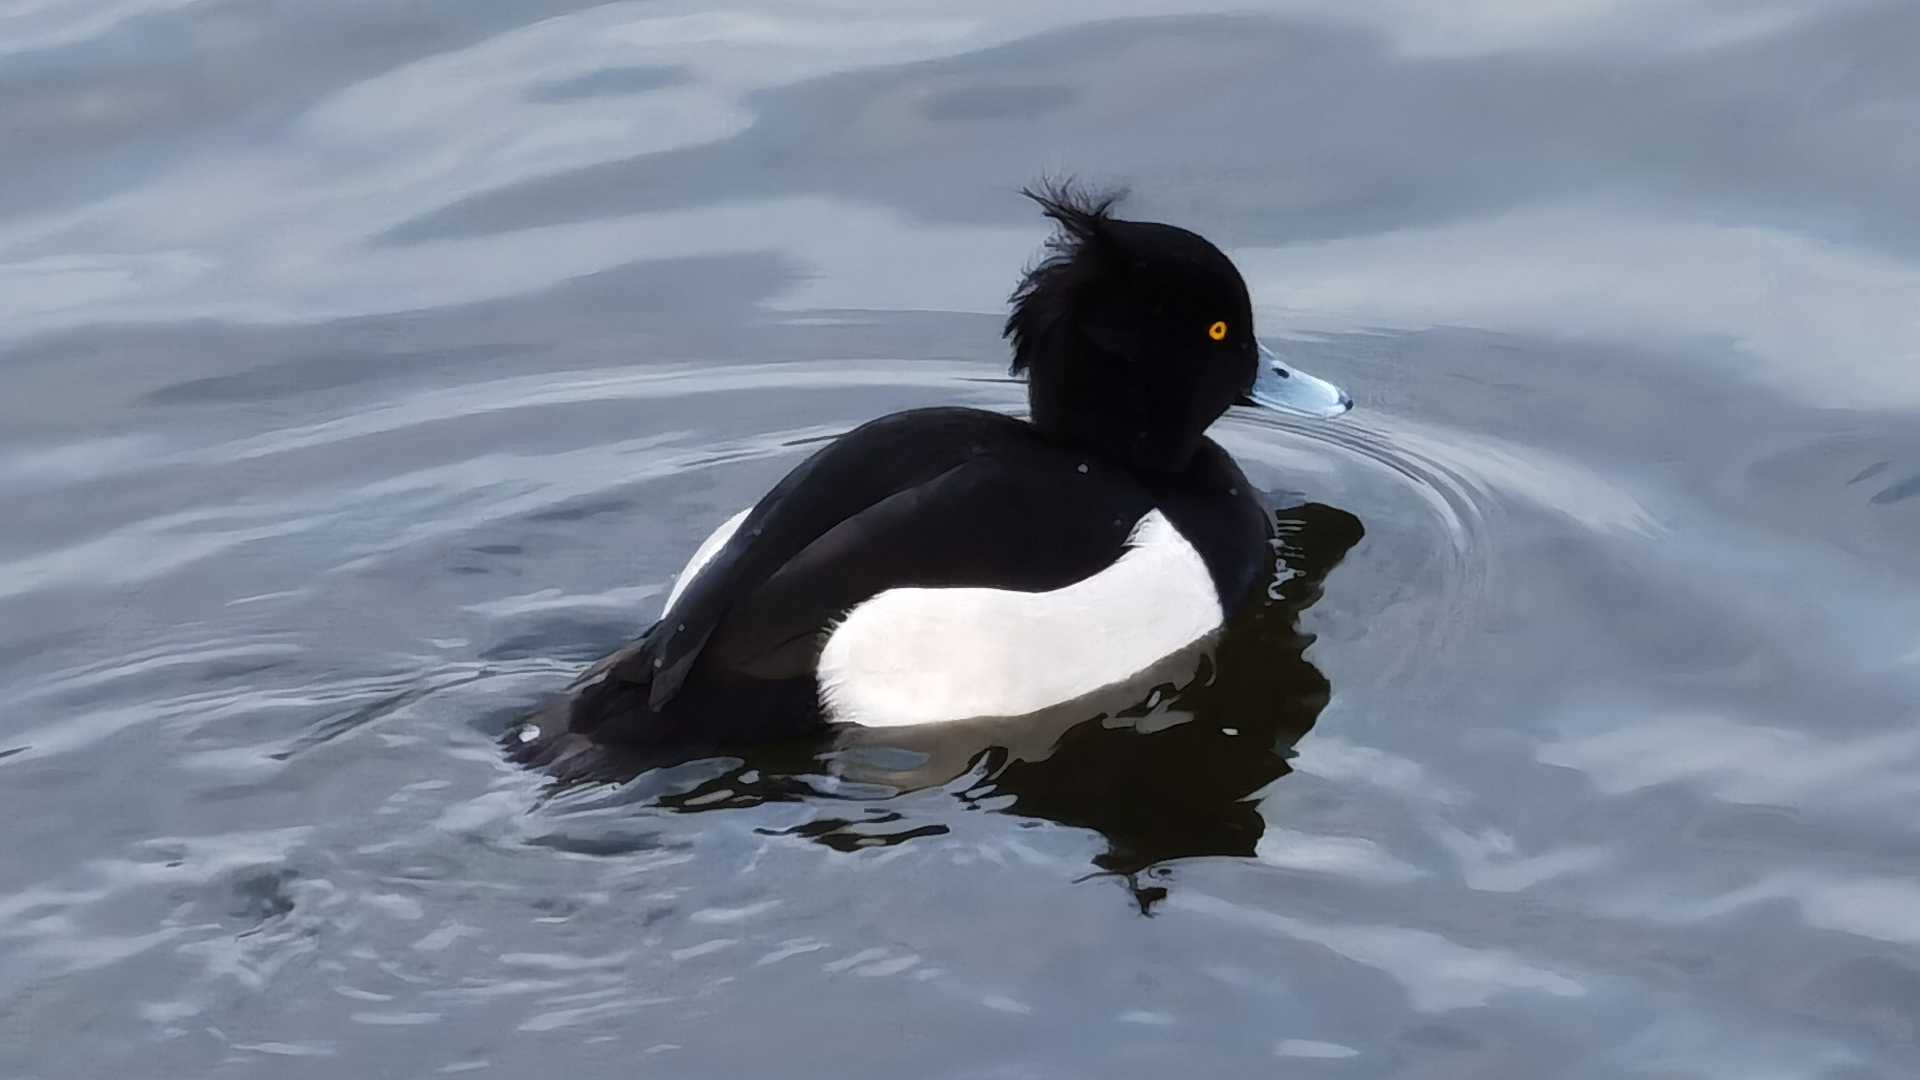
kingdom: Animalia
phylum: Chordata
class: Aves
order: Anseriformes
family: Anatidae
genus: Aythya
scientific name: Aythya fuligula
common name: Tufted duck
